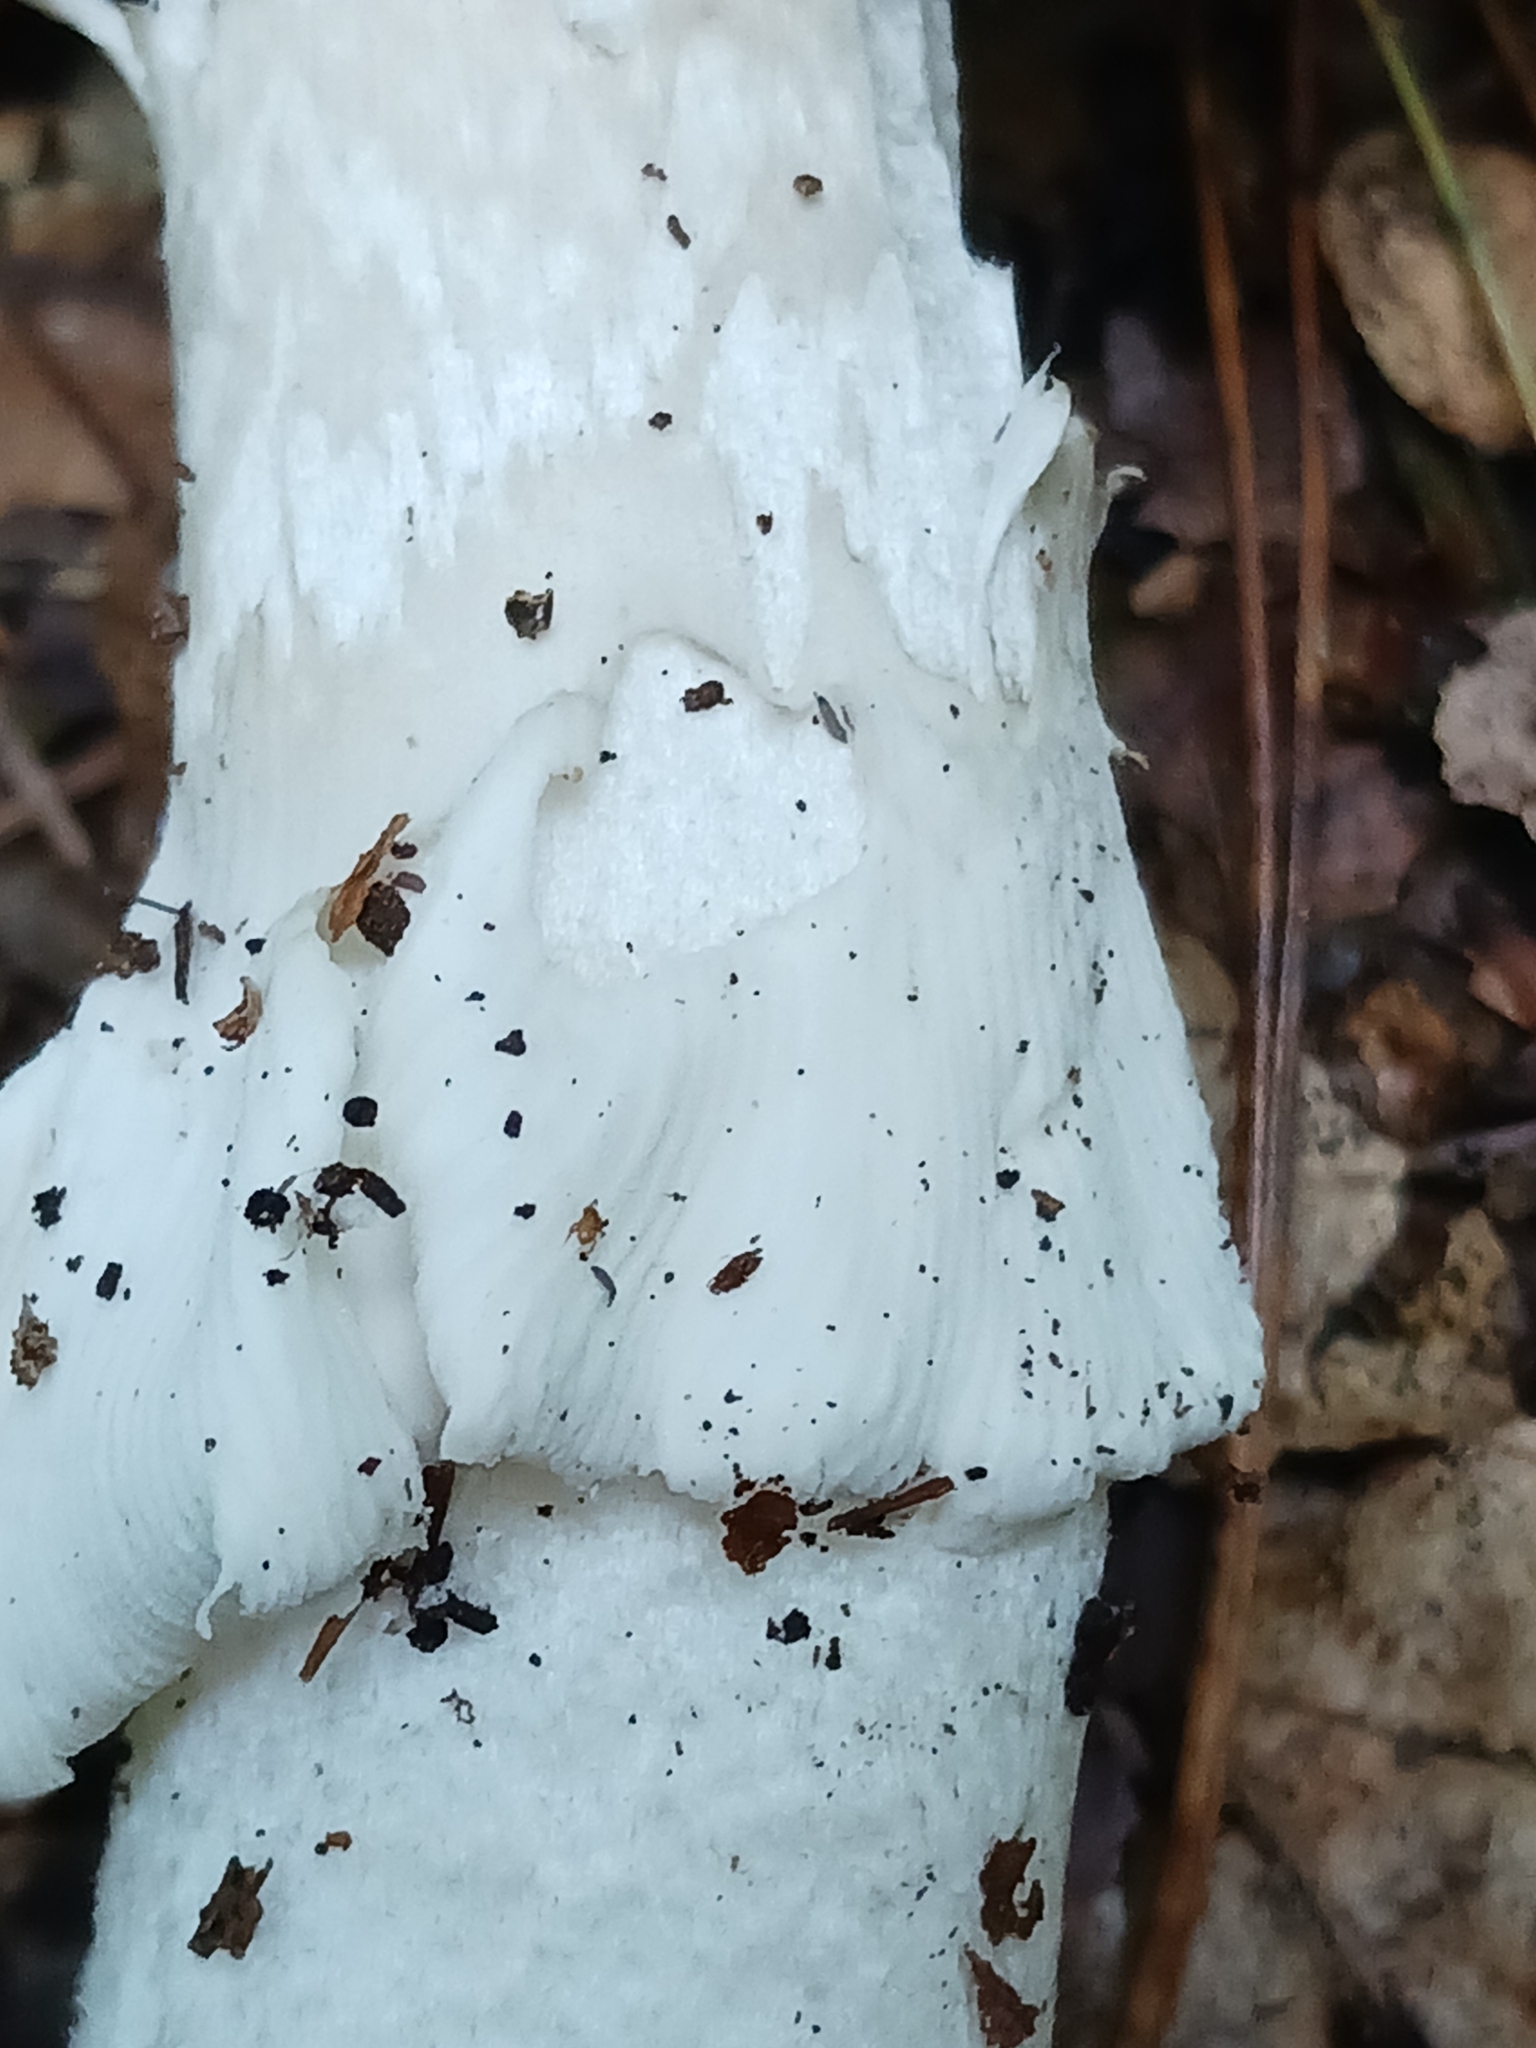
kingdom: Fungi
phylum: Basidiomycota
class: Agaricomycetes
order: Agaricales
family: Amanitaceae
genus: Amanita
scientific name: Amanita excelsa
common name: European false blusher
